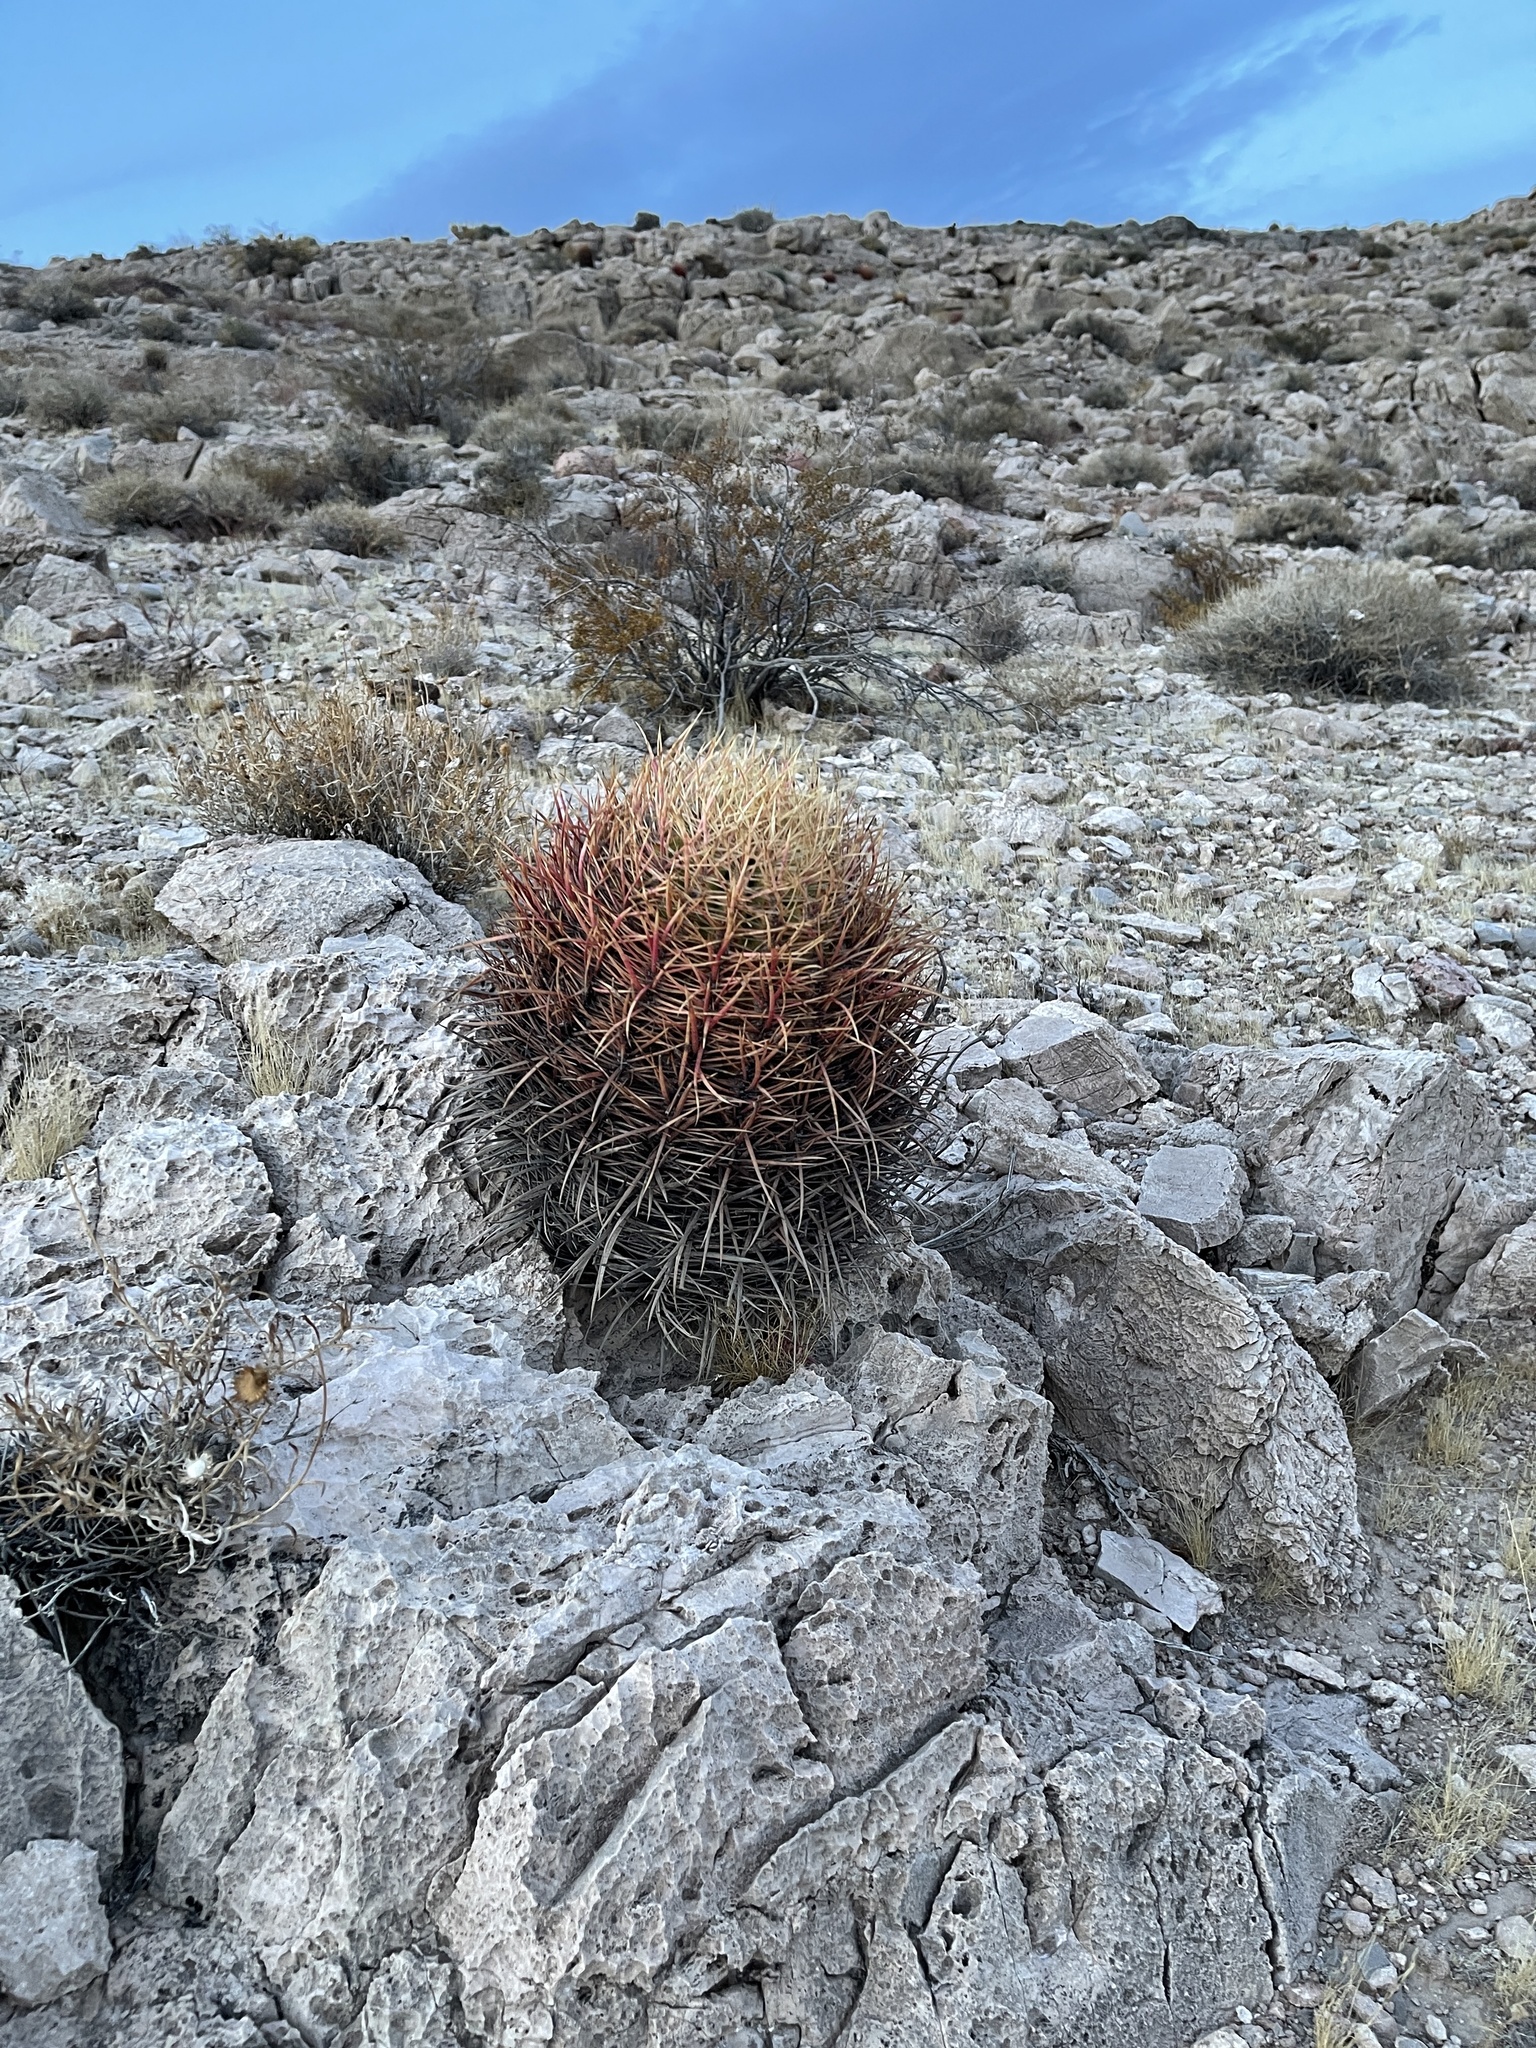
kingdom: Plantae
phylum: Tracheophyta
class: Magnoliopsida
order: Caryophyllales
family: Cactaceae
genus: Ferocactus
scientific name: Ferocactus cylindraceus
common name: California barrel cactus
